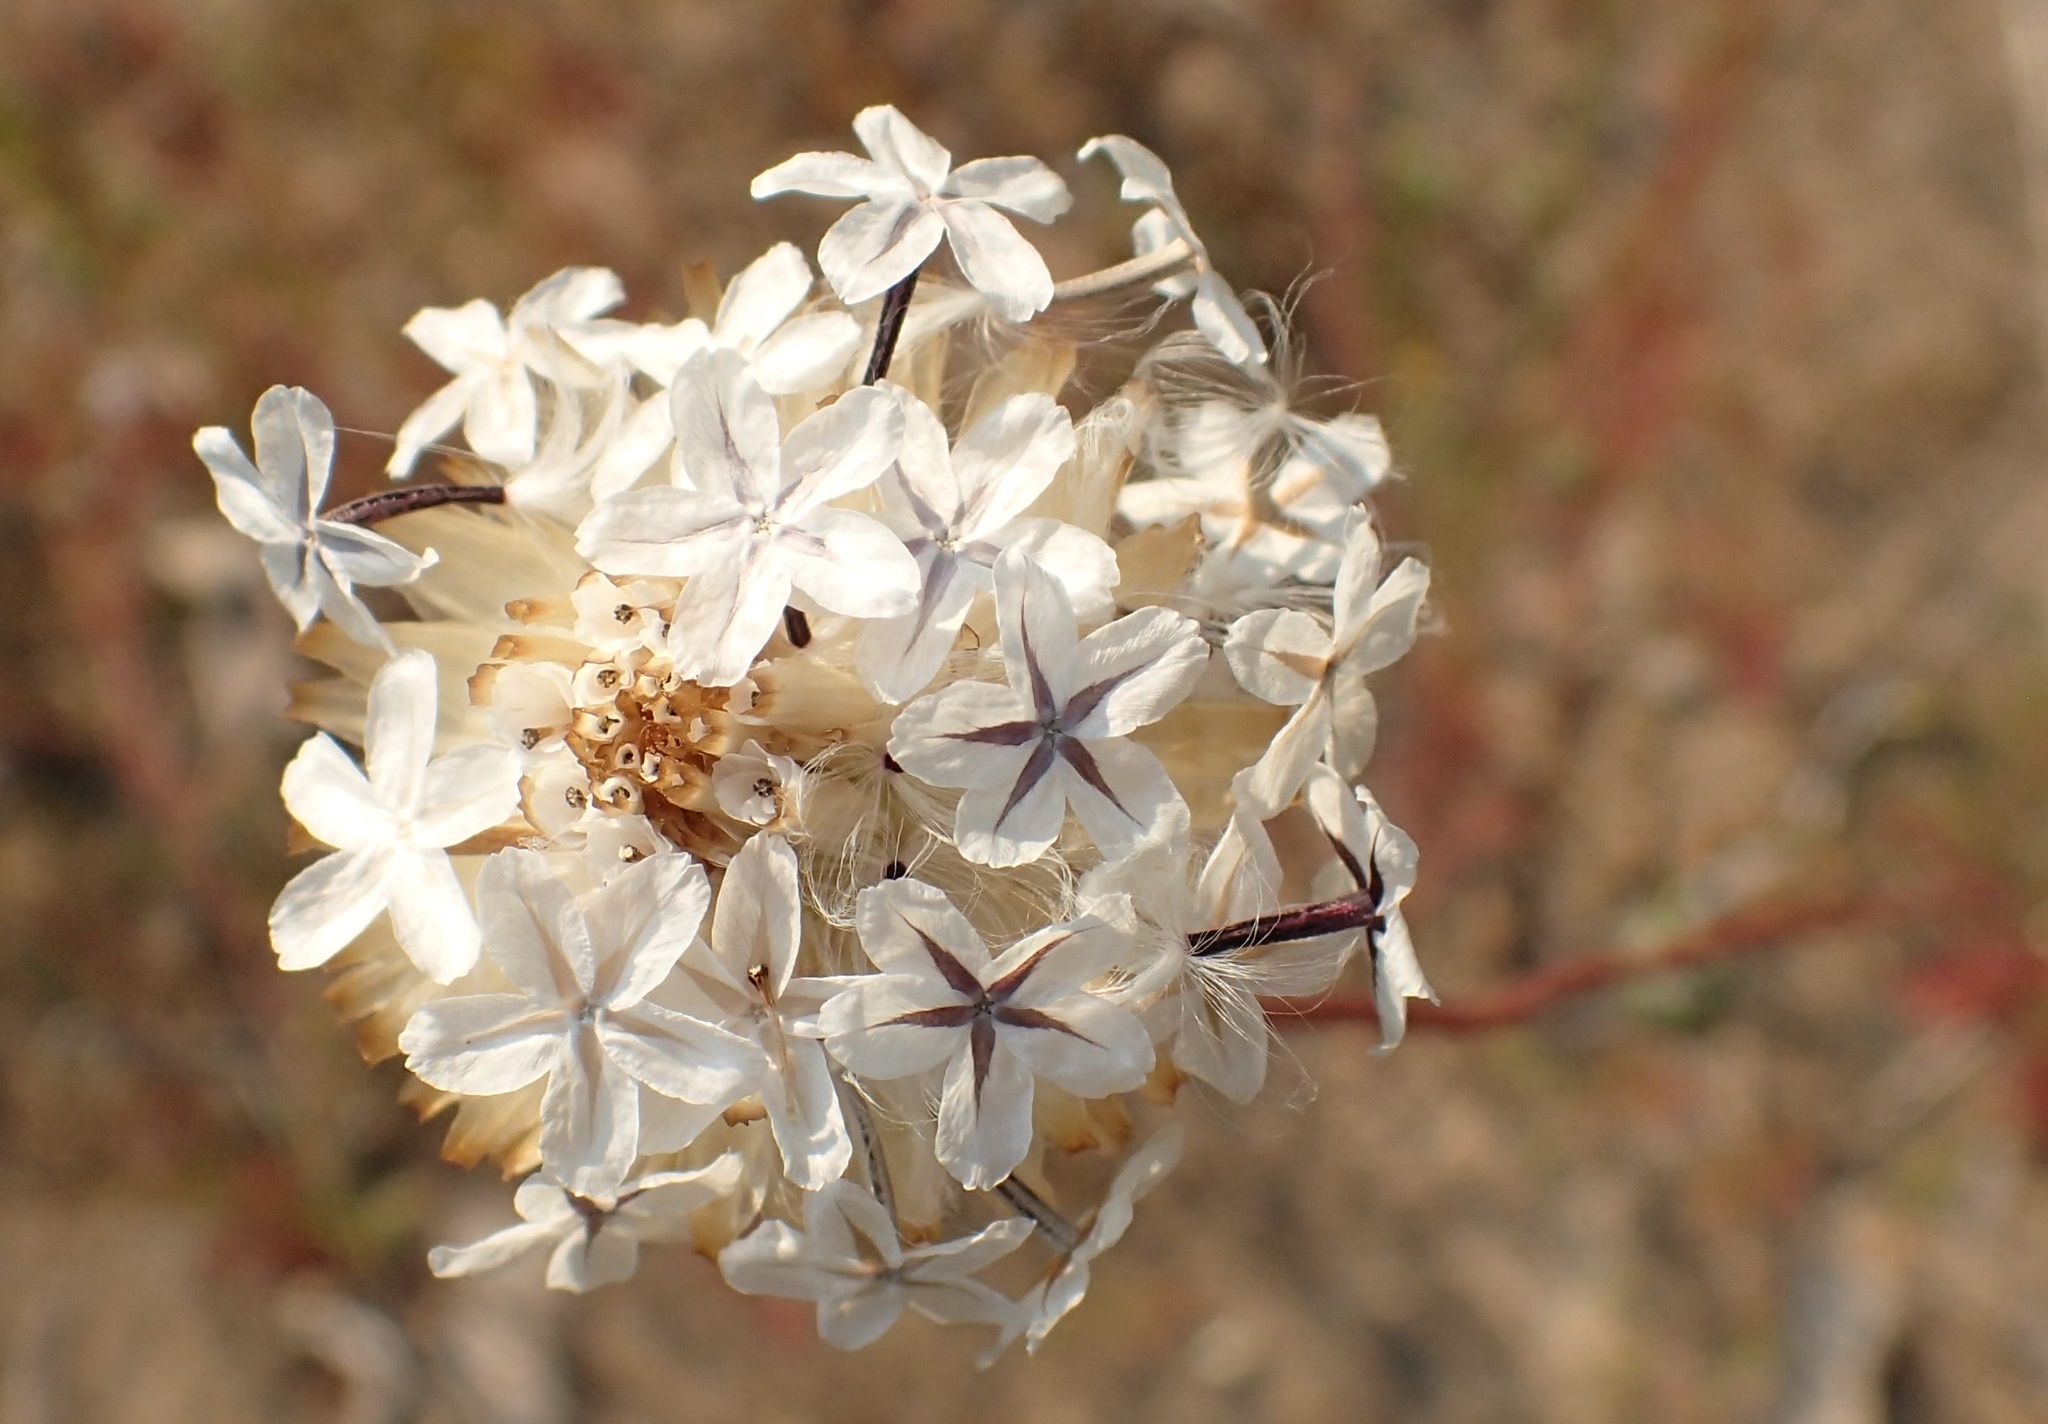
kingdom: Plantae
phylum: Tracheophyta
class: Magnoliopsida
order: Asterales
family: Asteraceae
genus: Ursinia
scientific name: Ursinia anthemoides
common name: Ursinia
